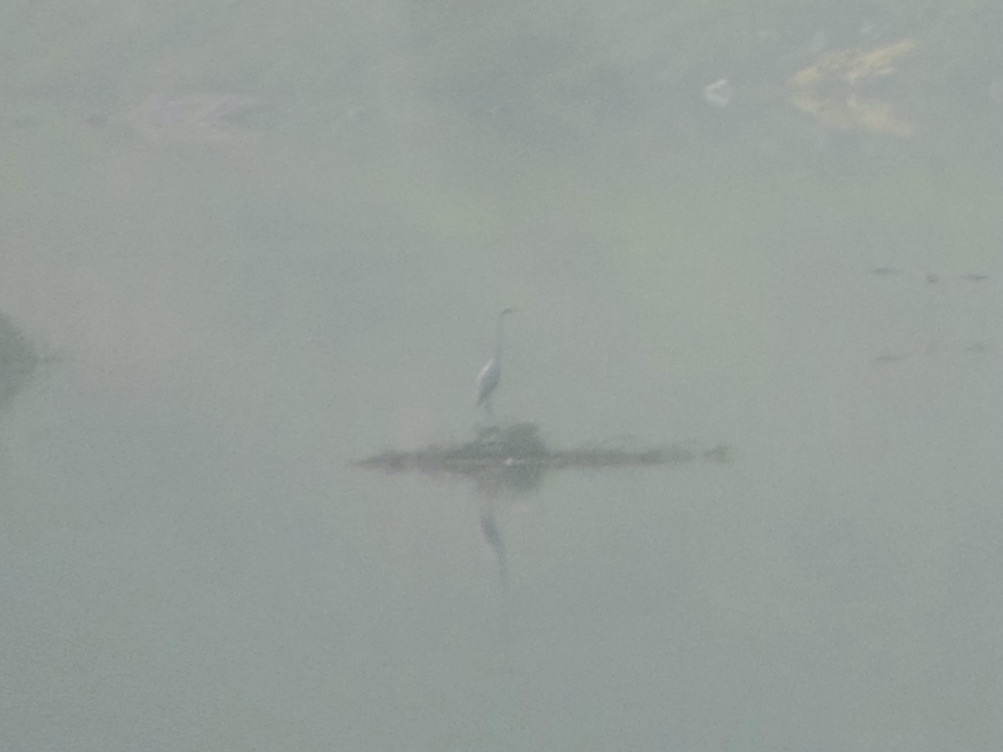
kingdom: Animalia
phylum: Chordata
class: Aves
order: Pelecaniformes
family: Ardeidae
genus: Ardea
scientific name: Ardea alba
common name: Great egret
